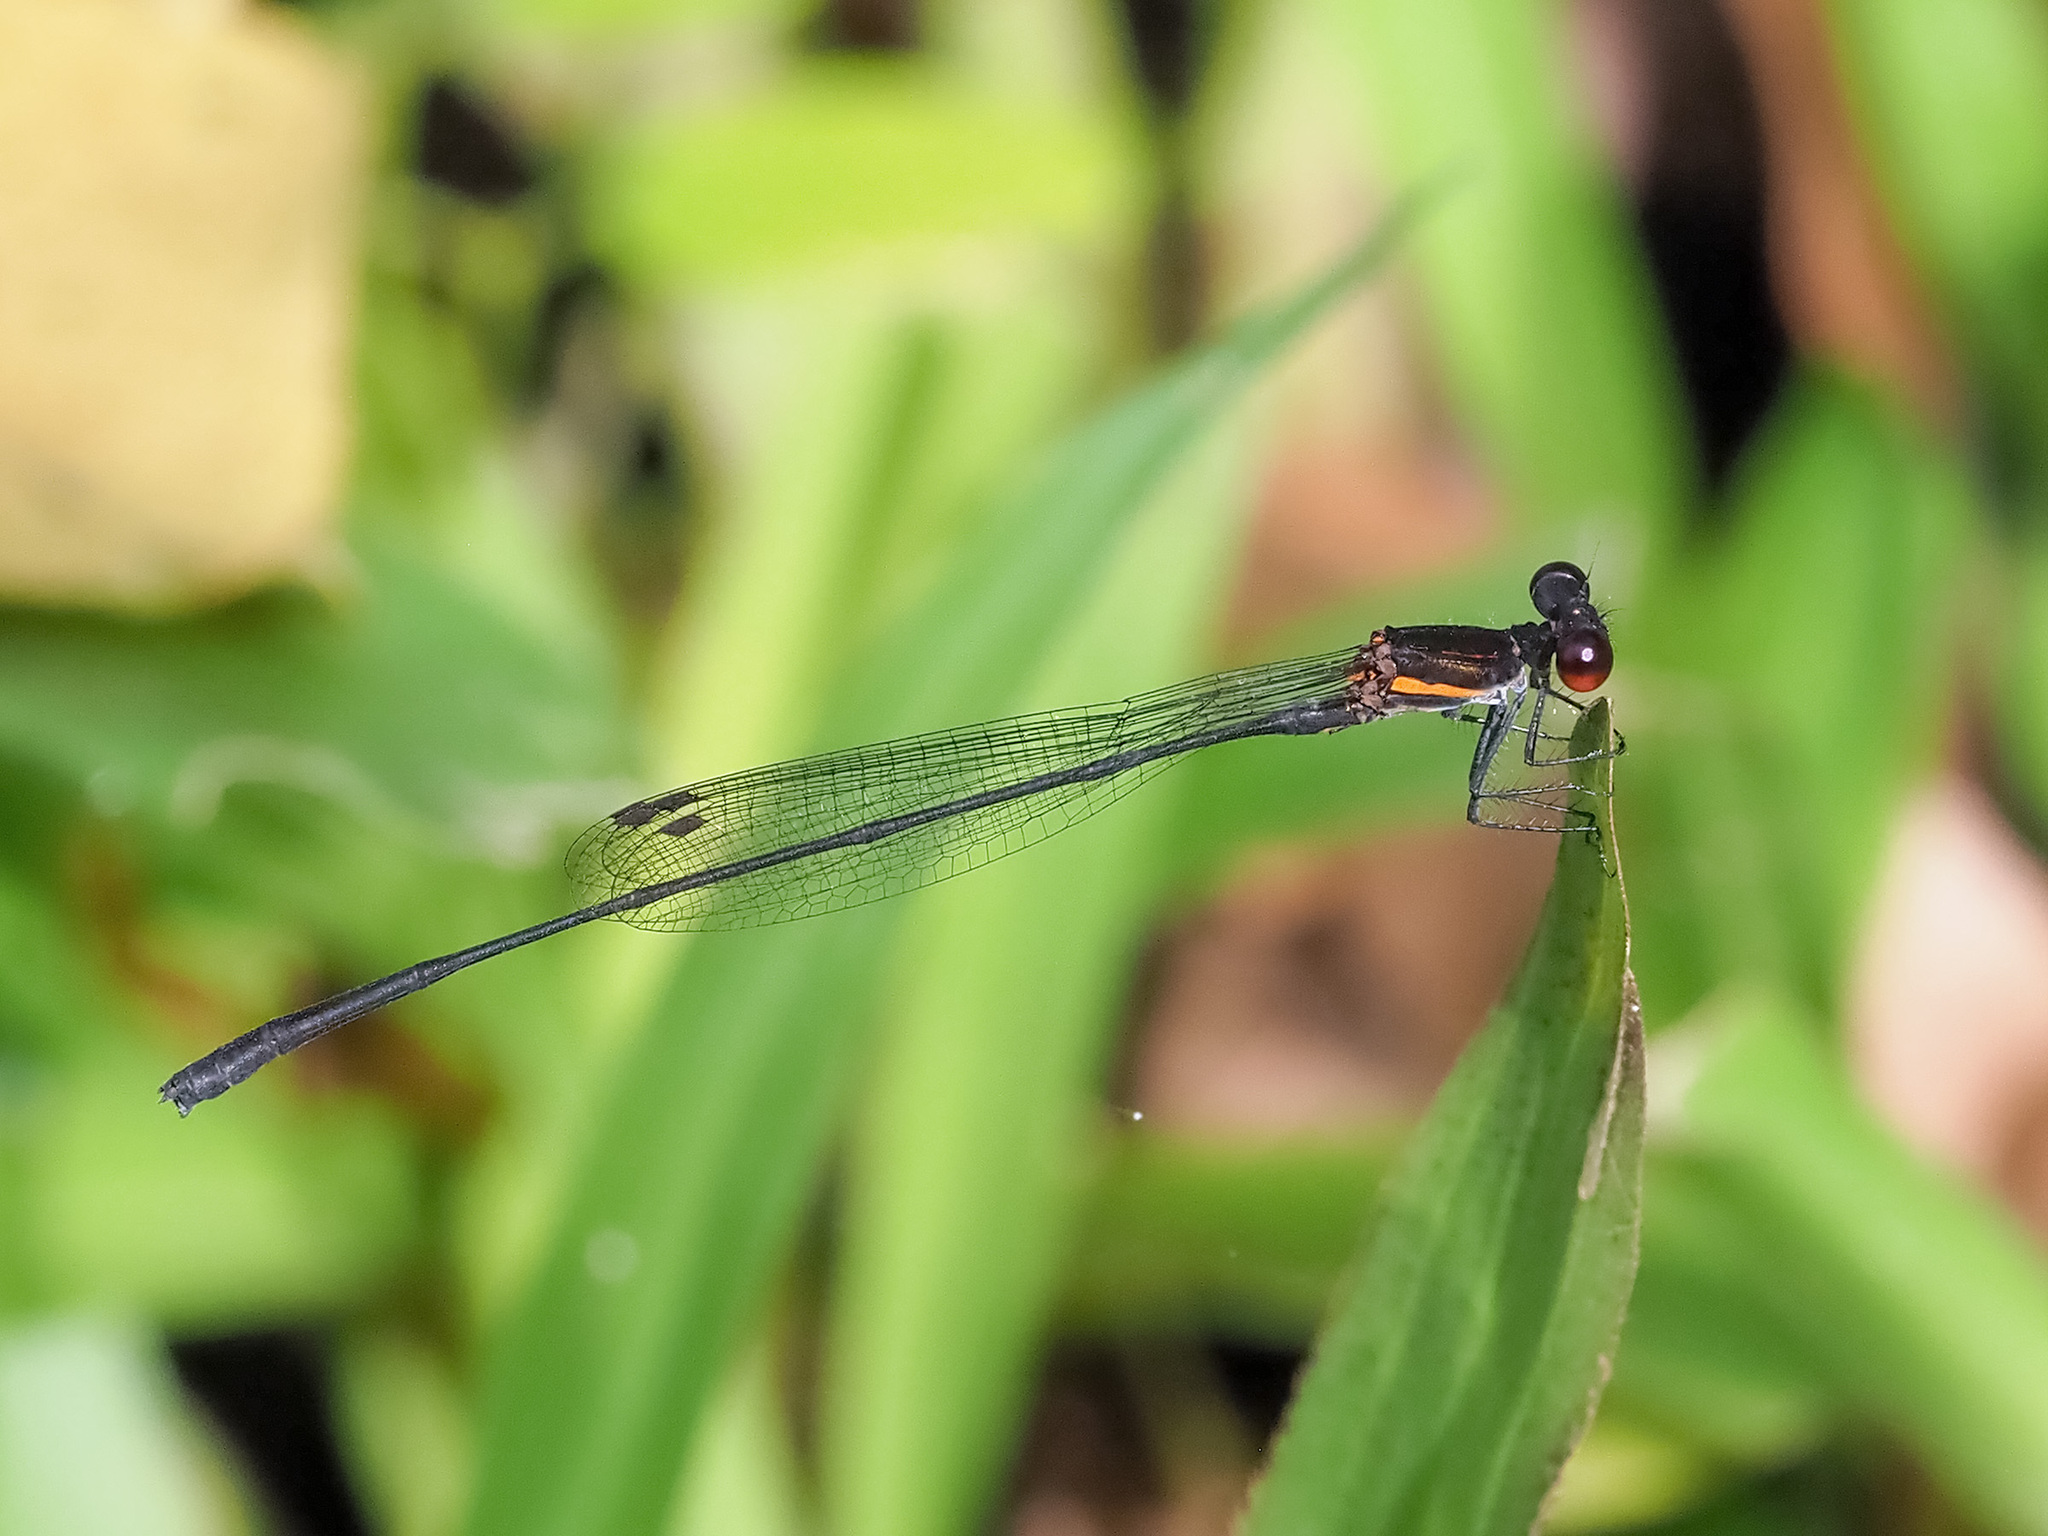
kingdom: Animalia
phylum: Arthropoda
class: Insecta
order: Odonata
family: Platycnemididae
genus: Prodasineura
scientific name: Prodasineura verticalis
